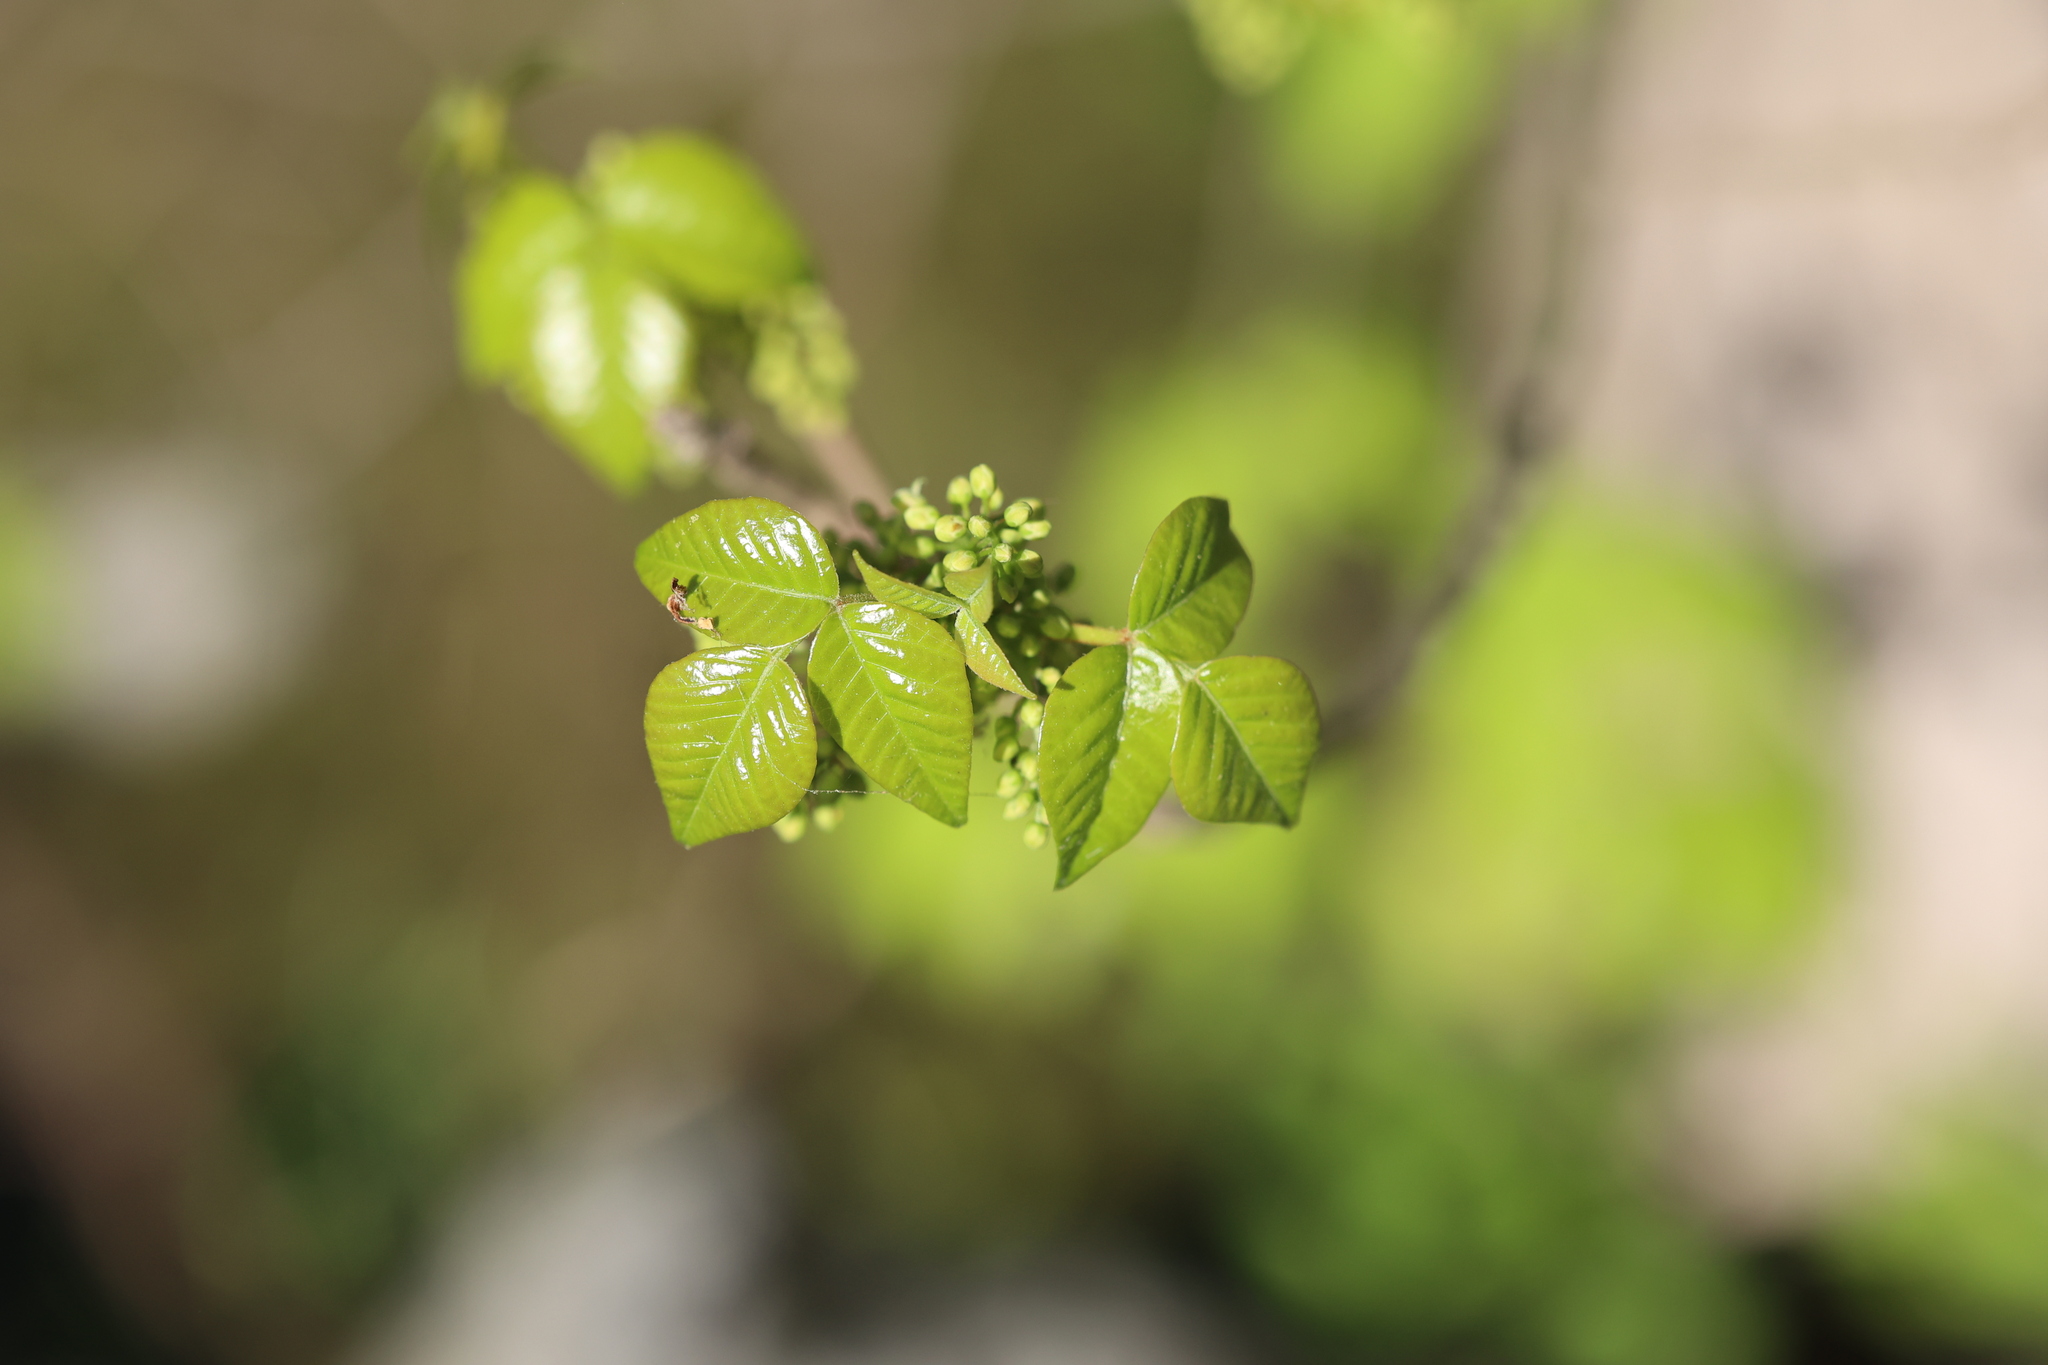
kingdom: Plantae
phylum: Tracheophyta
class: Magnoliopsida
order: Sapindales
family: Anacardiaceae
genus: Toxicodendron
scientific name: Toxicodendron radicans
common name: Poison ivy
